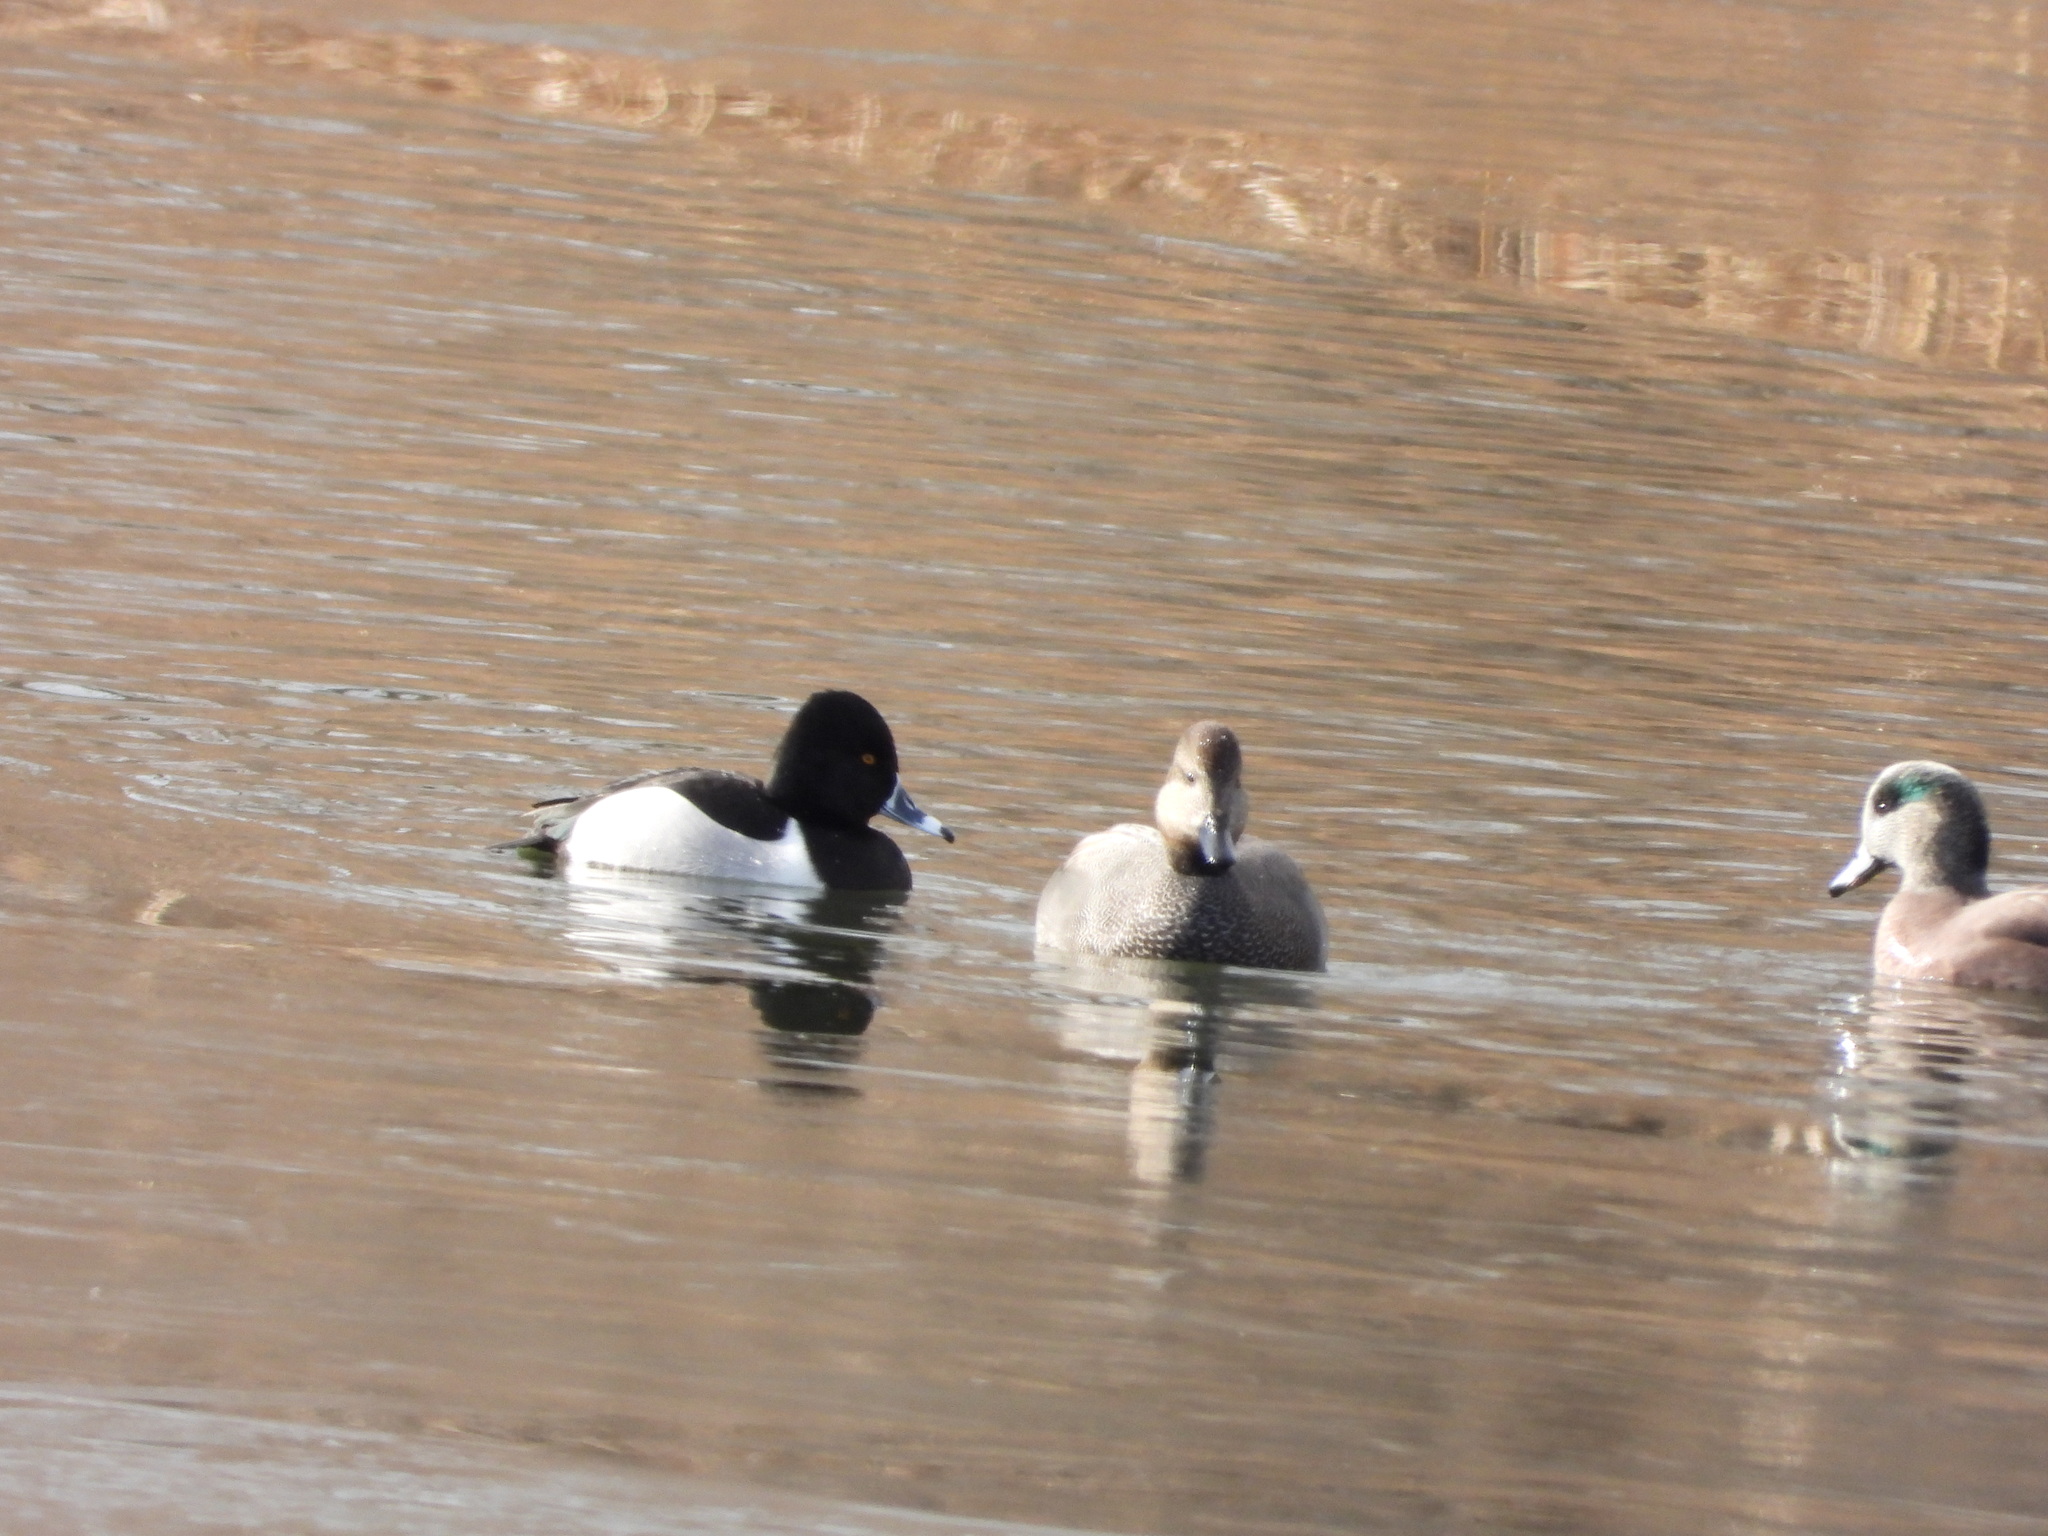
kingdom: Animalia
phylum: Chordata
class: Aves
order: Anseriformes
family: Anatidae
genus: Aythya
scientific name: Aythya collaris
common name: Ring-necked duck
